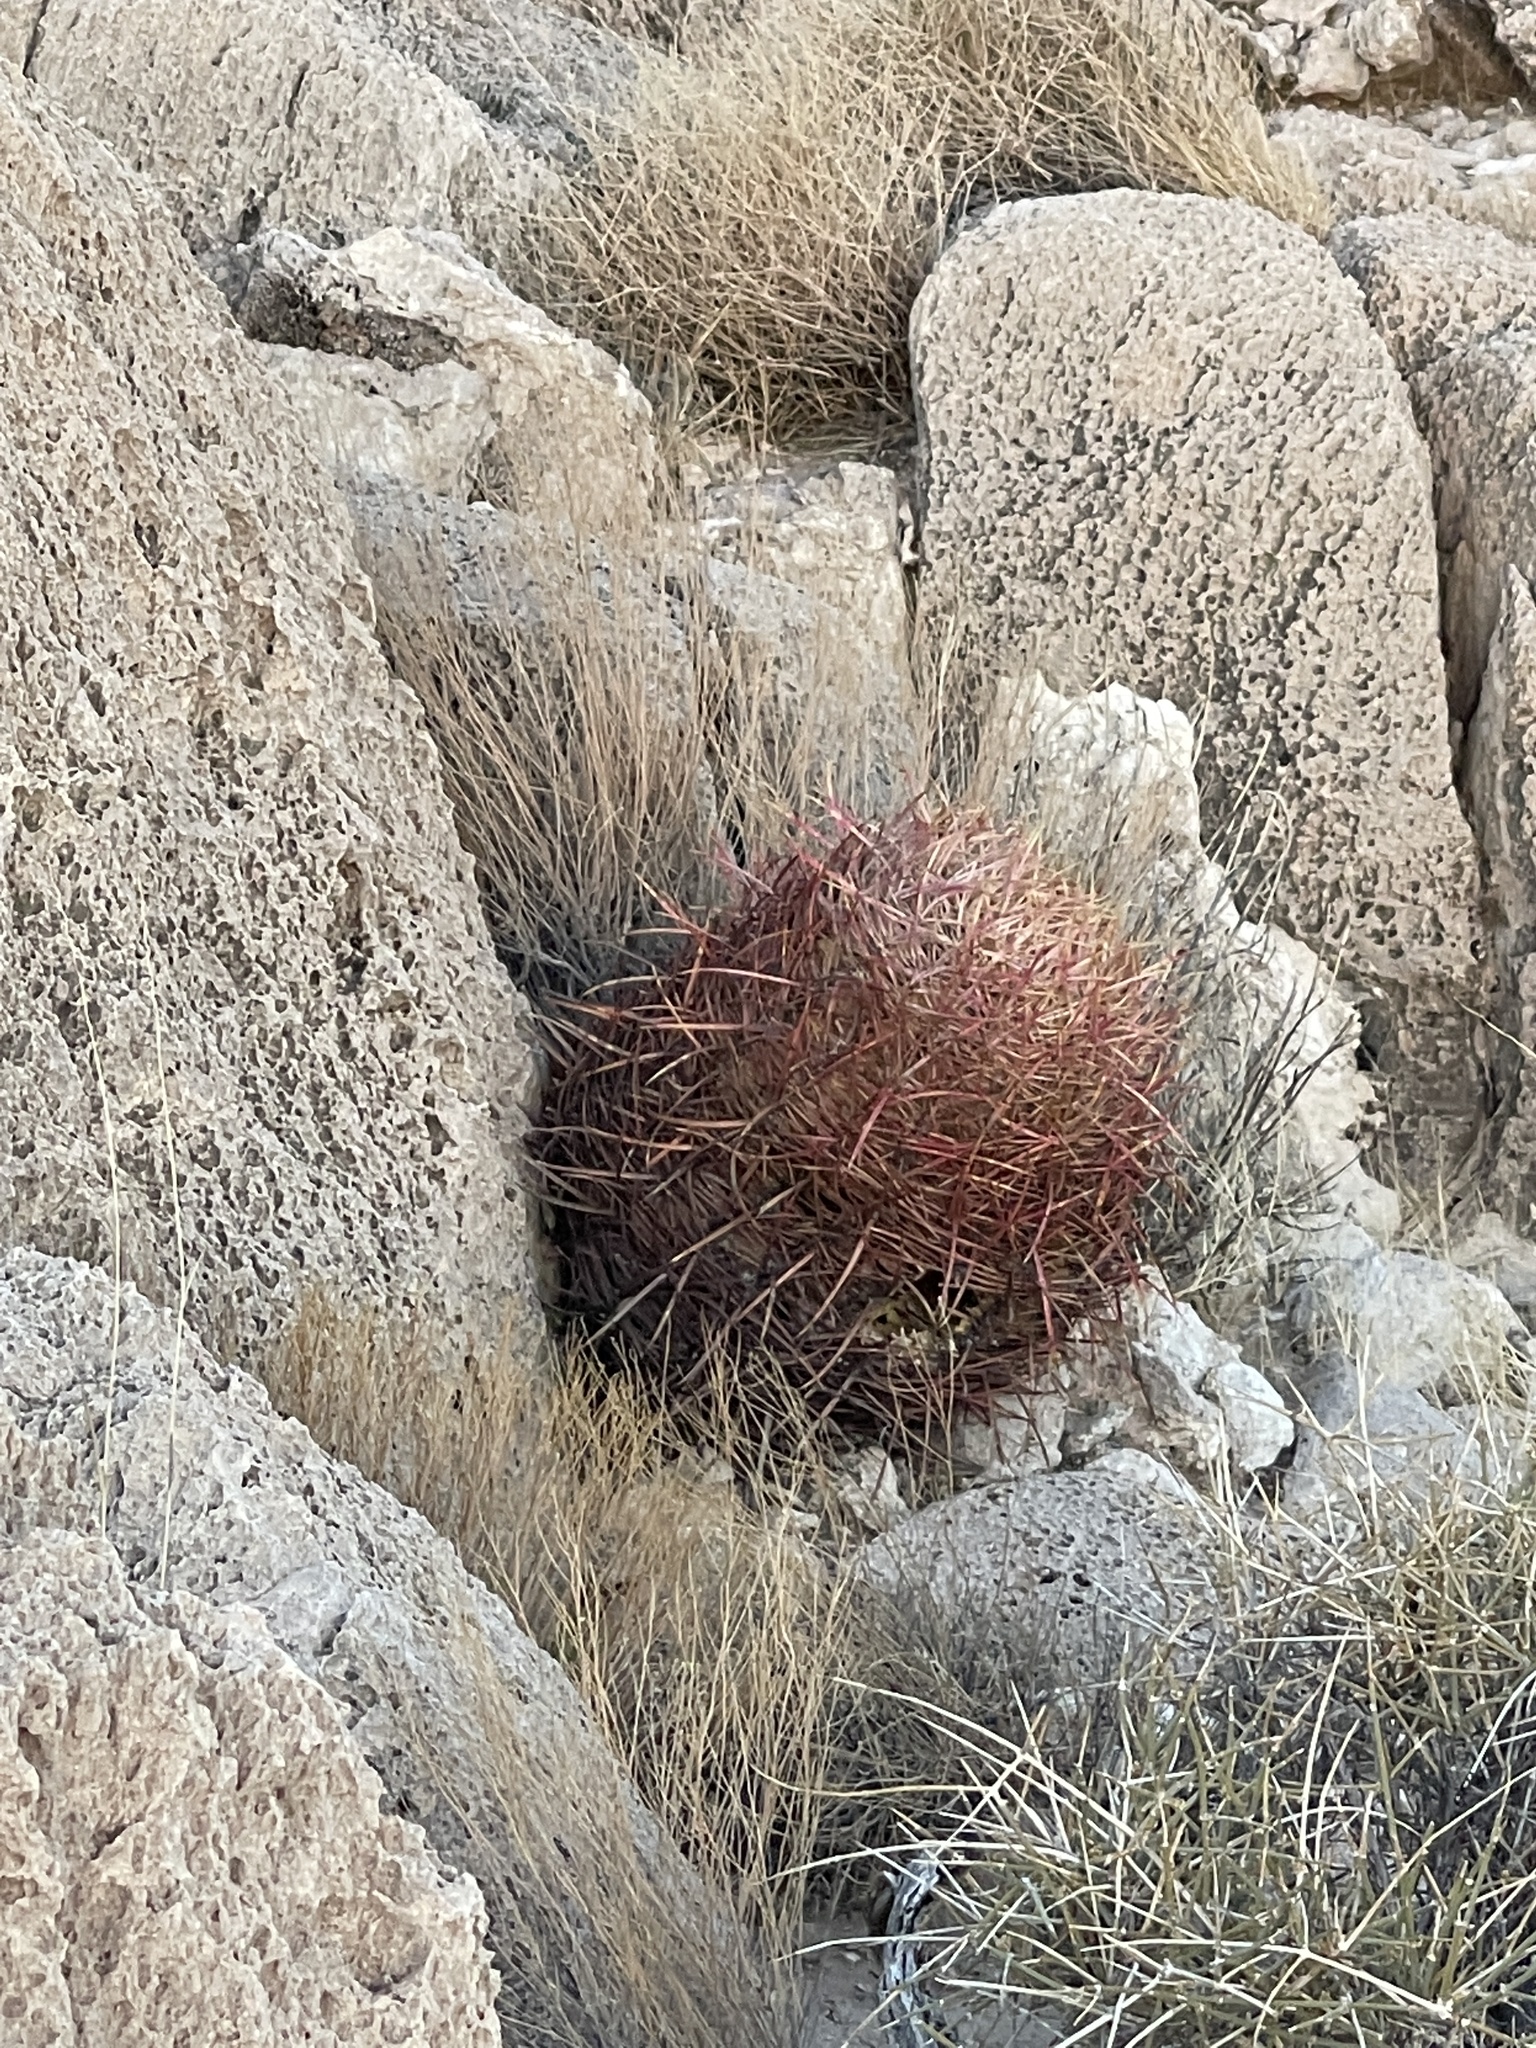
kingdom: Plantae
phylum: Tracheophyta
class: Magnoliopsida
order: Caryophyllales
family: Cactaceae
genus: Ferocactus
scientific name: Ferocactus cylindraceus
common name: California barrel cactus
